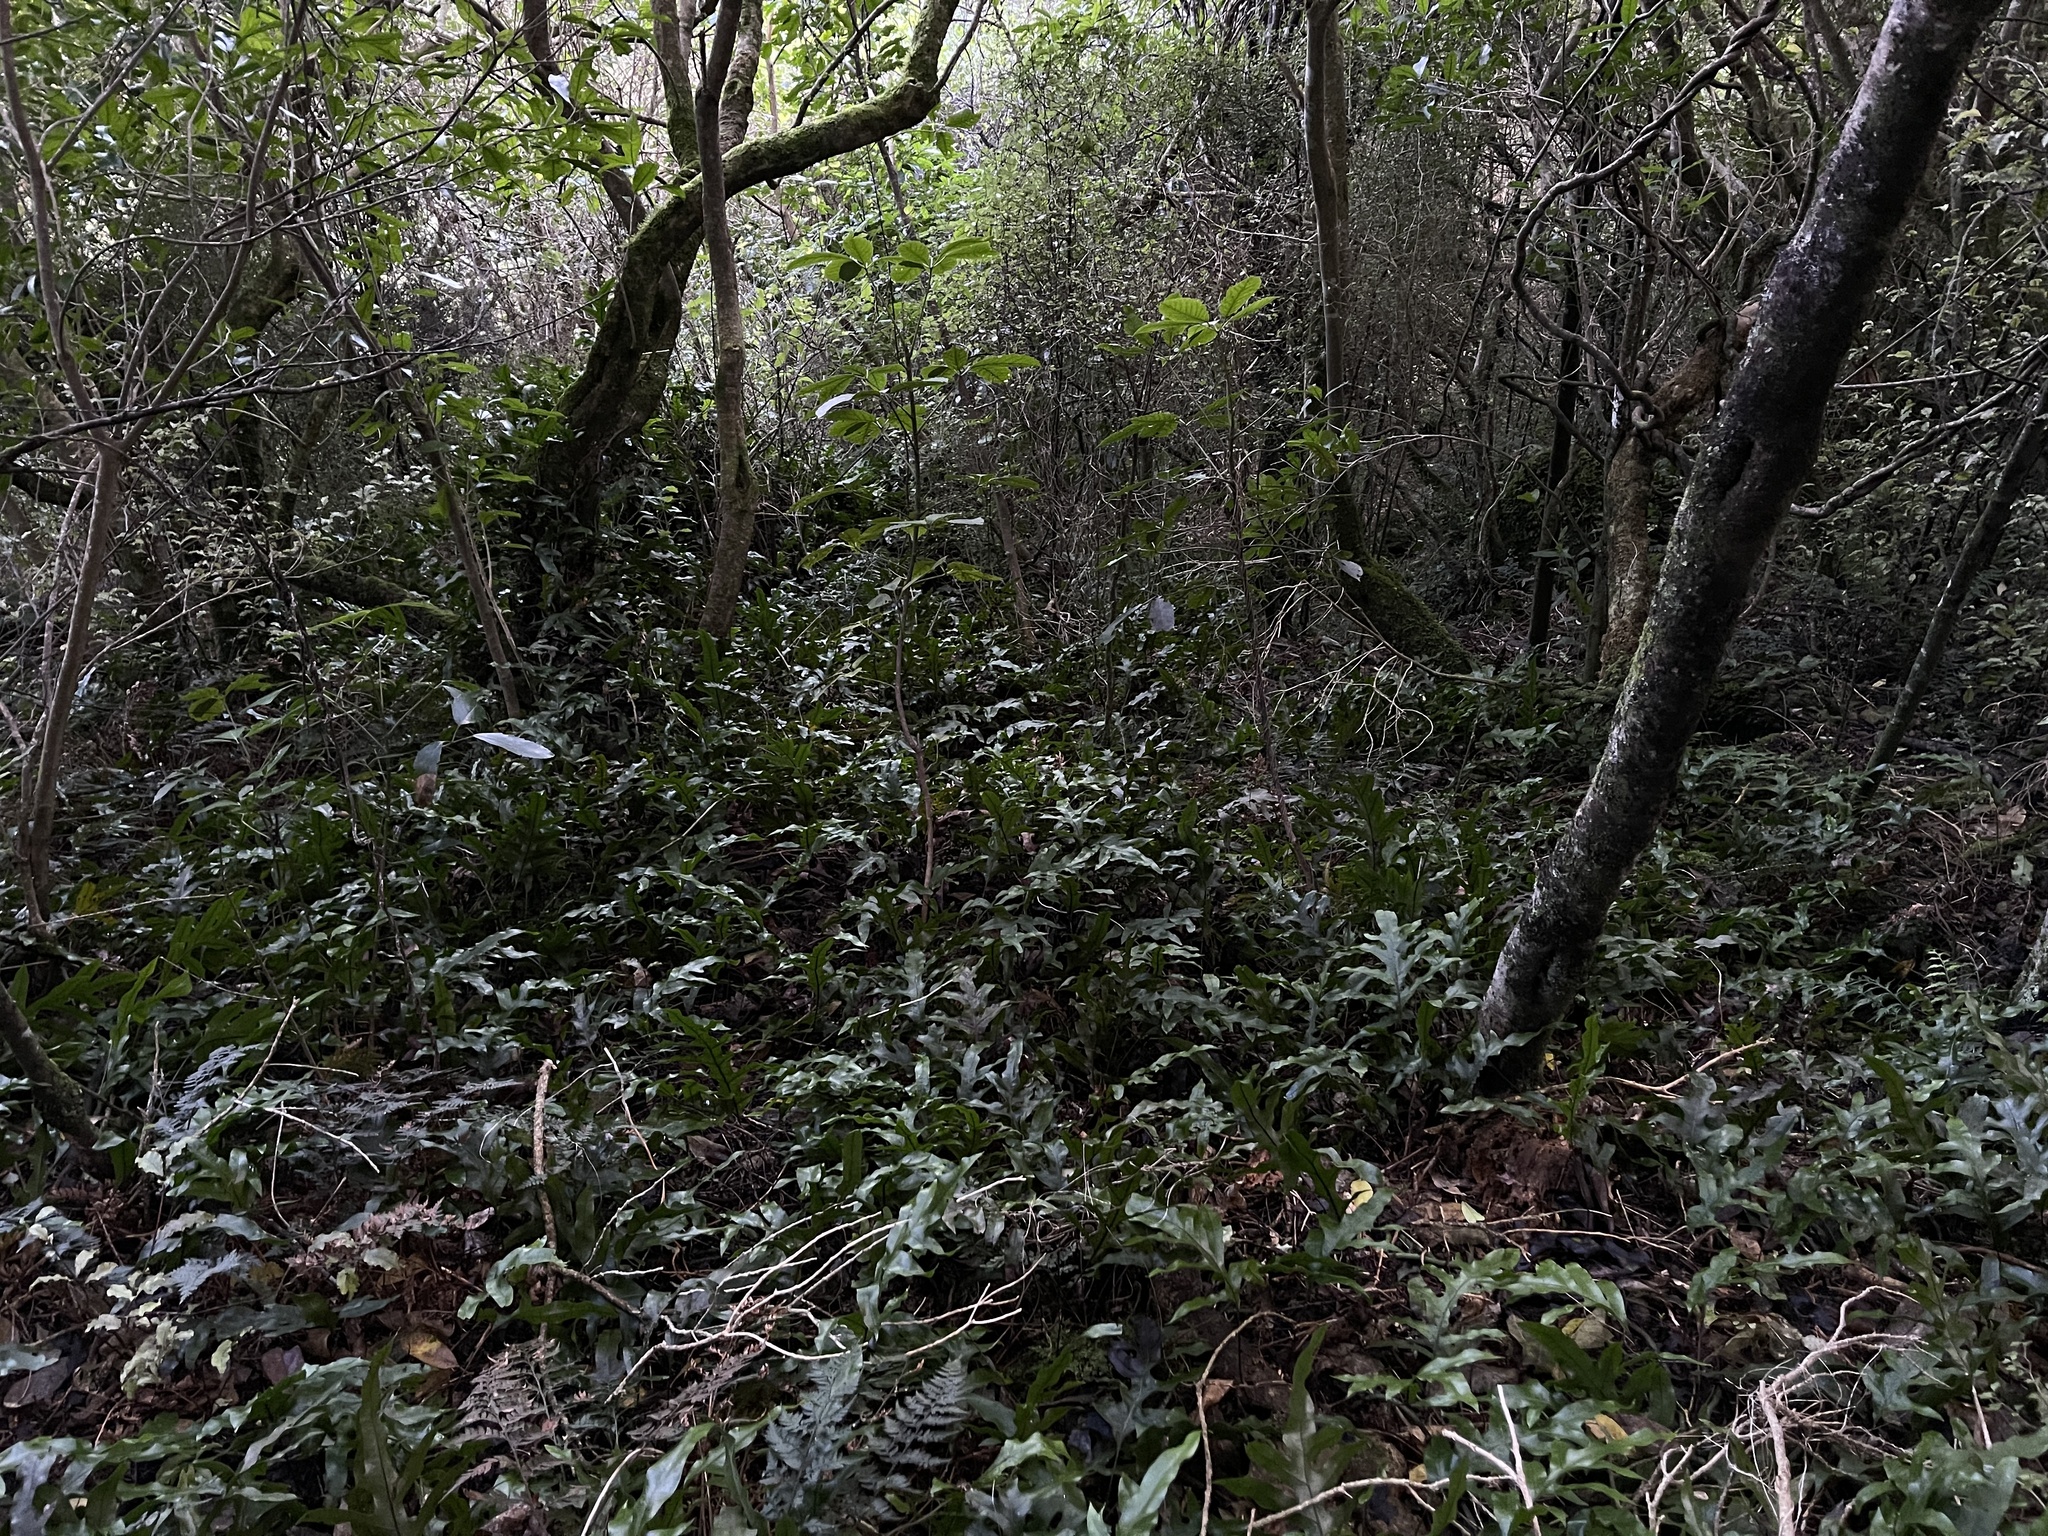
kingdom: Plantae
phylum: Tracheophyta
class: Polypodiopsida
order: Polypodiales
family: Polypodiaceae
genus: Lecanopteris
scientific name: Lecanopteris pustulata
